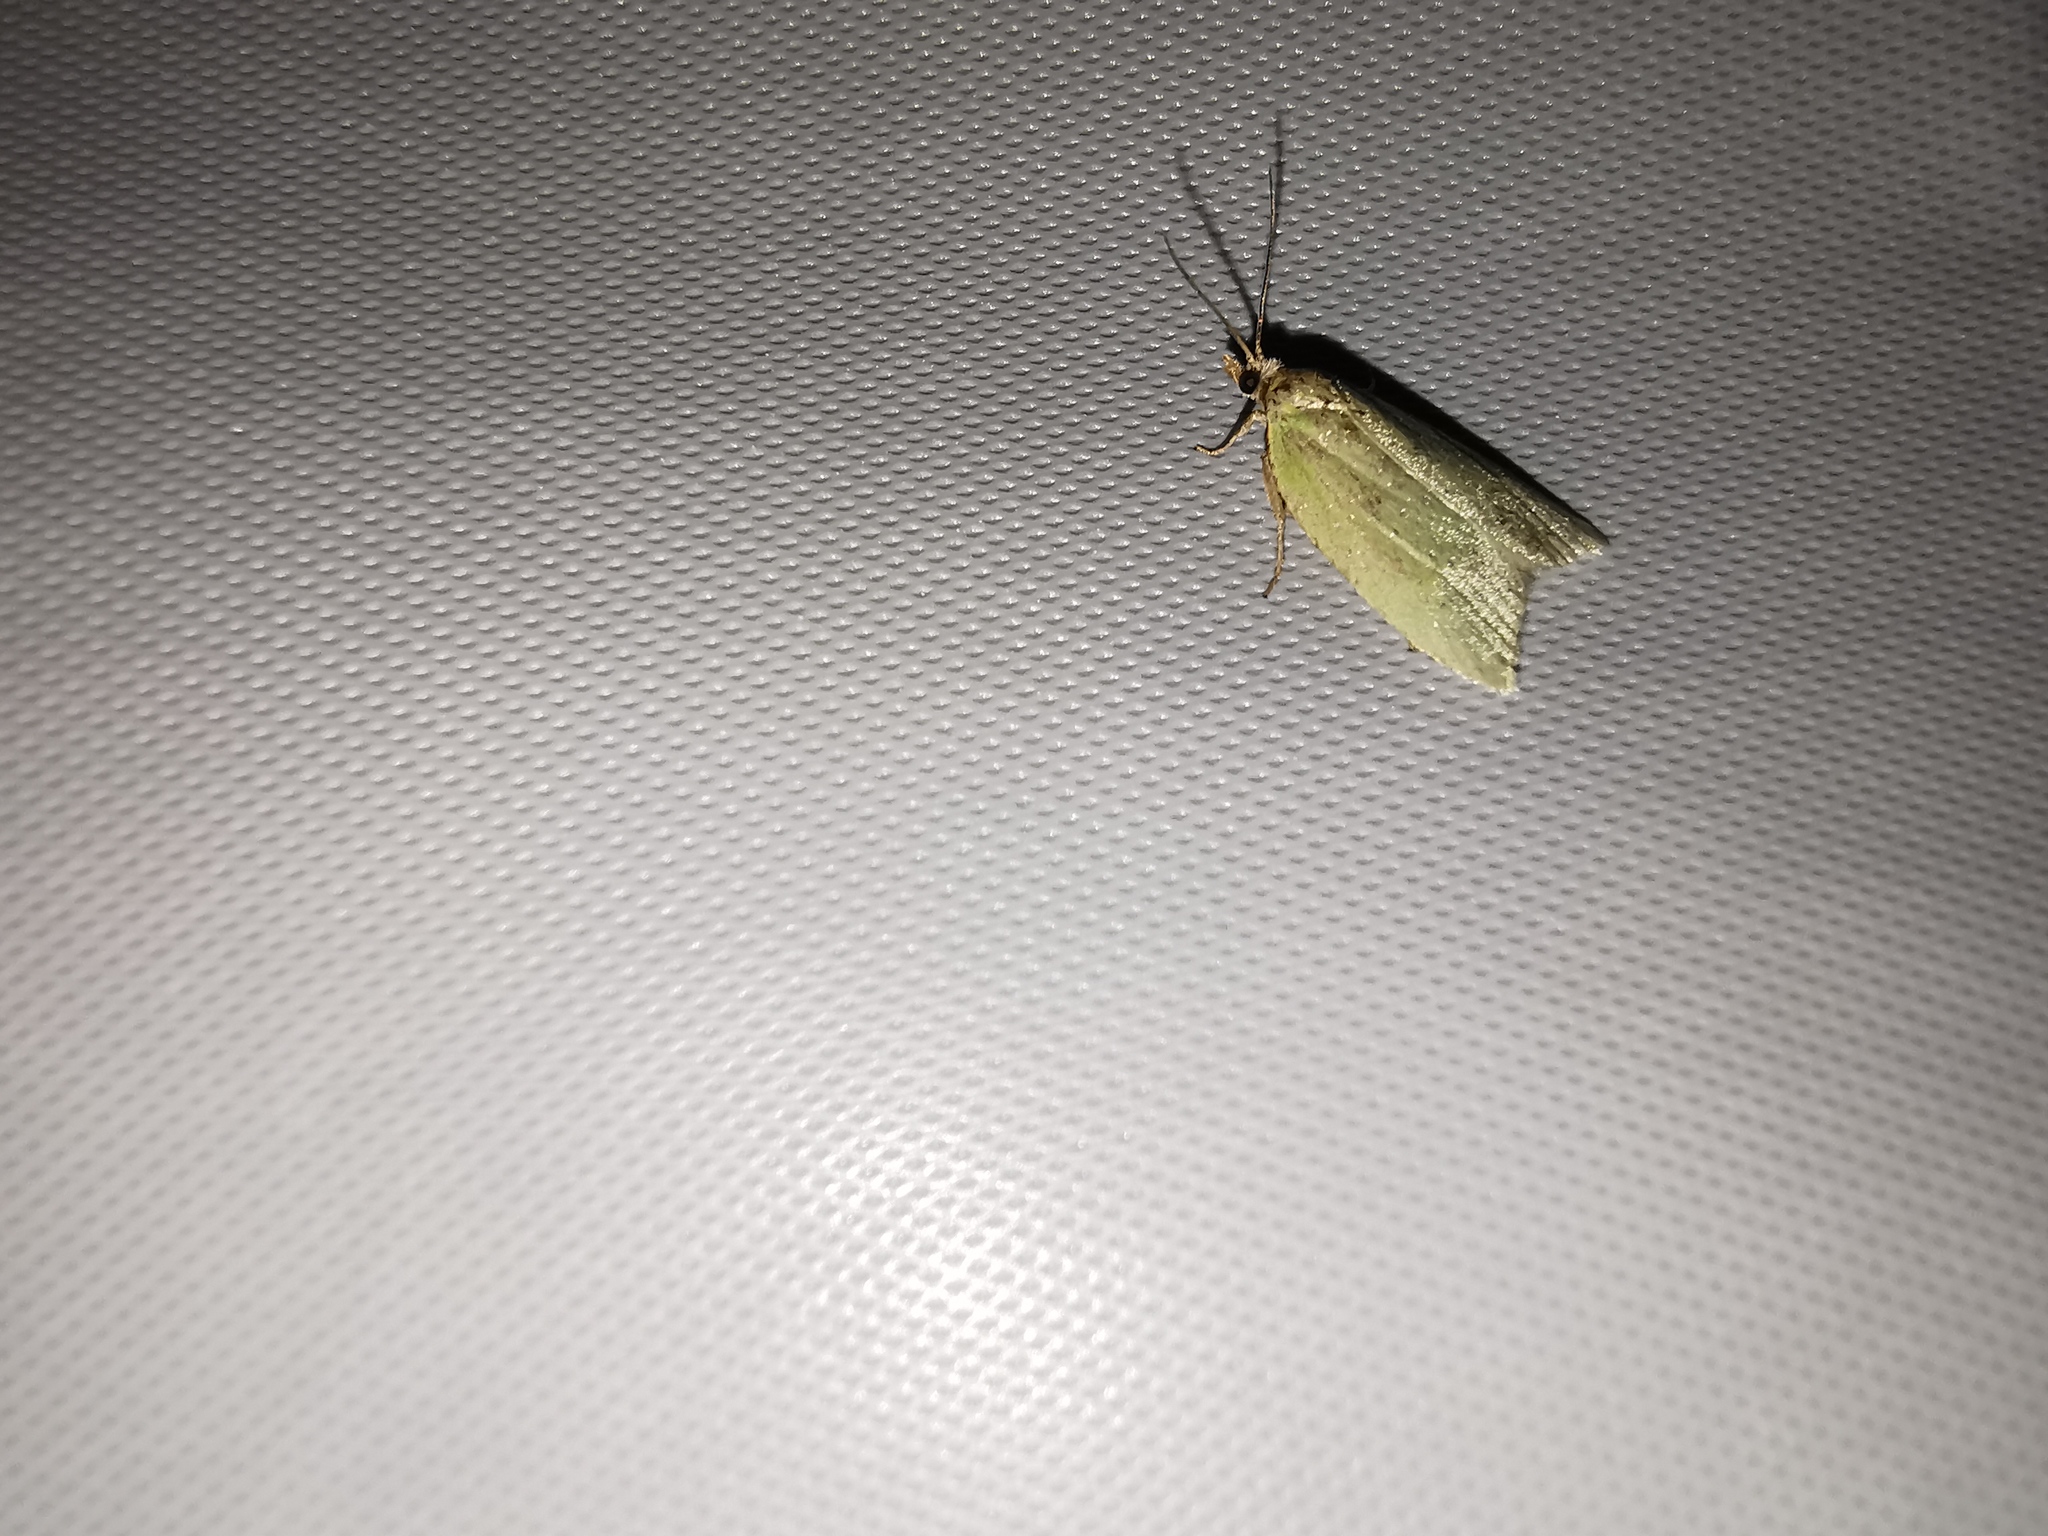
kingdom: Animalia
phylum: Arthropoda
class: Insecta
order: Lepidoptera
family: Tortricidae
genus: Tortrix
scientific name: Tortrix viridana
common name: Green oak tortrix
